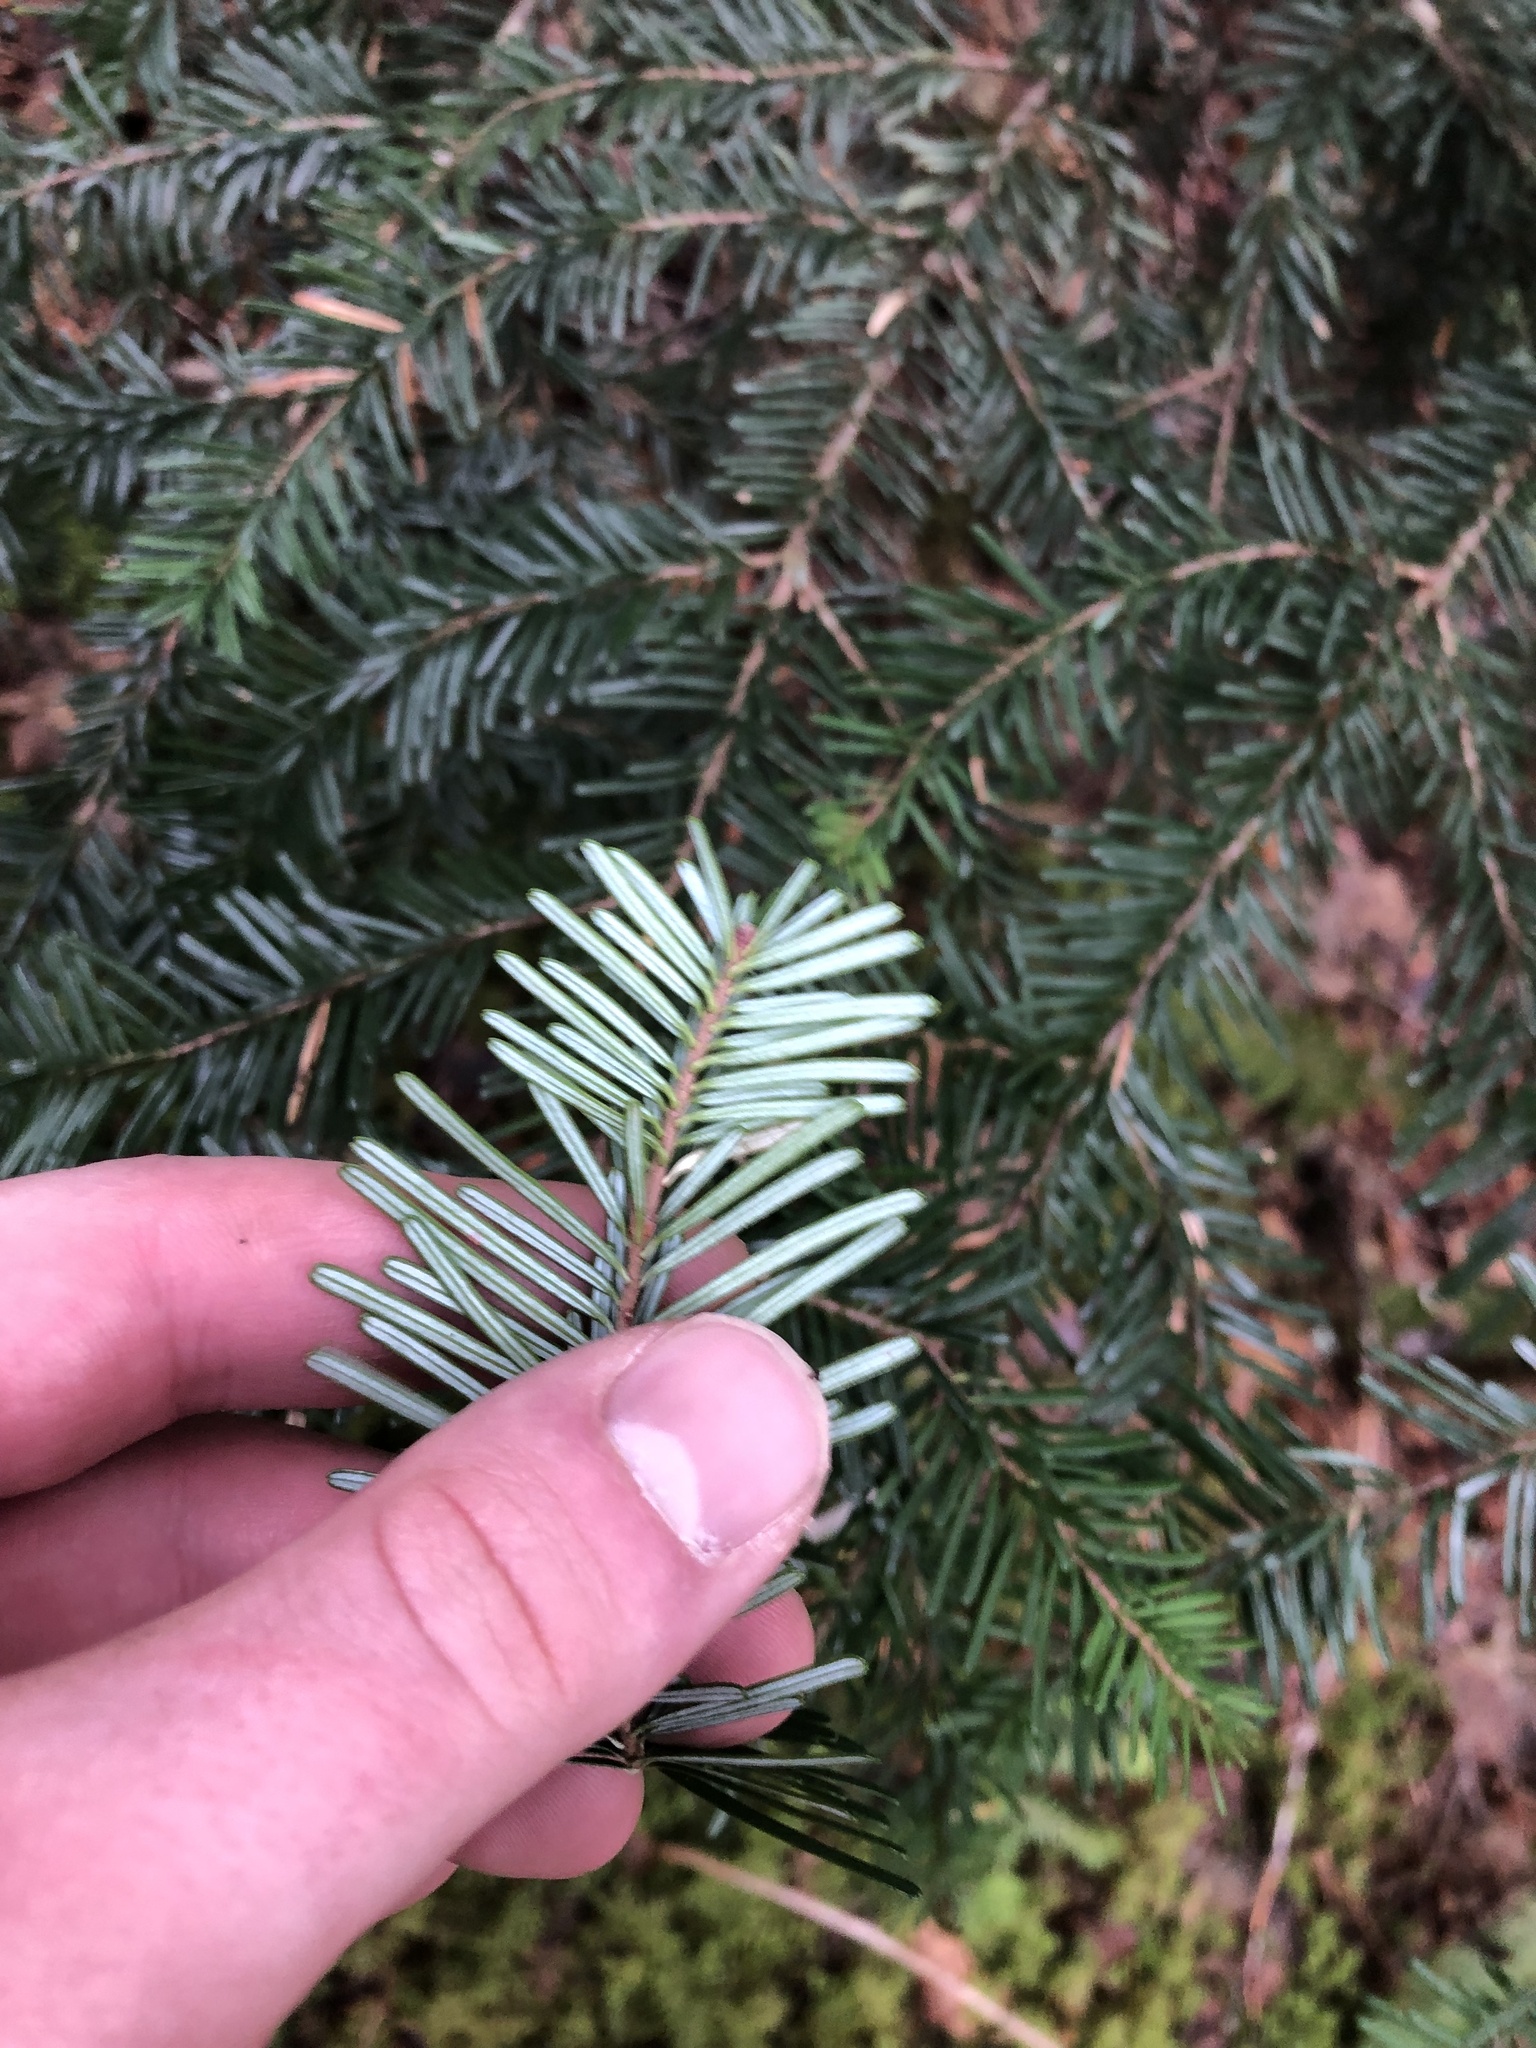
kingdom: Plantae
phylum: Tracheophyta
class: Pinopsida
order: Pinales
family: Pinaceae
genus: Abies
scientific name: Abies amabilis
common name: Pacific silver fir
